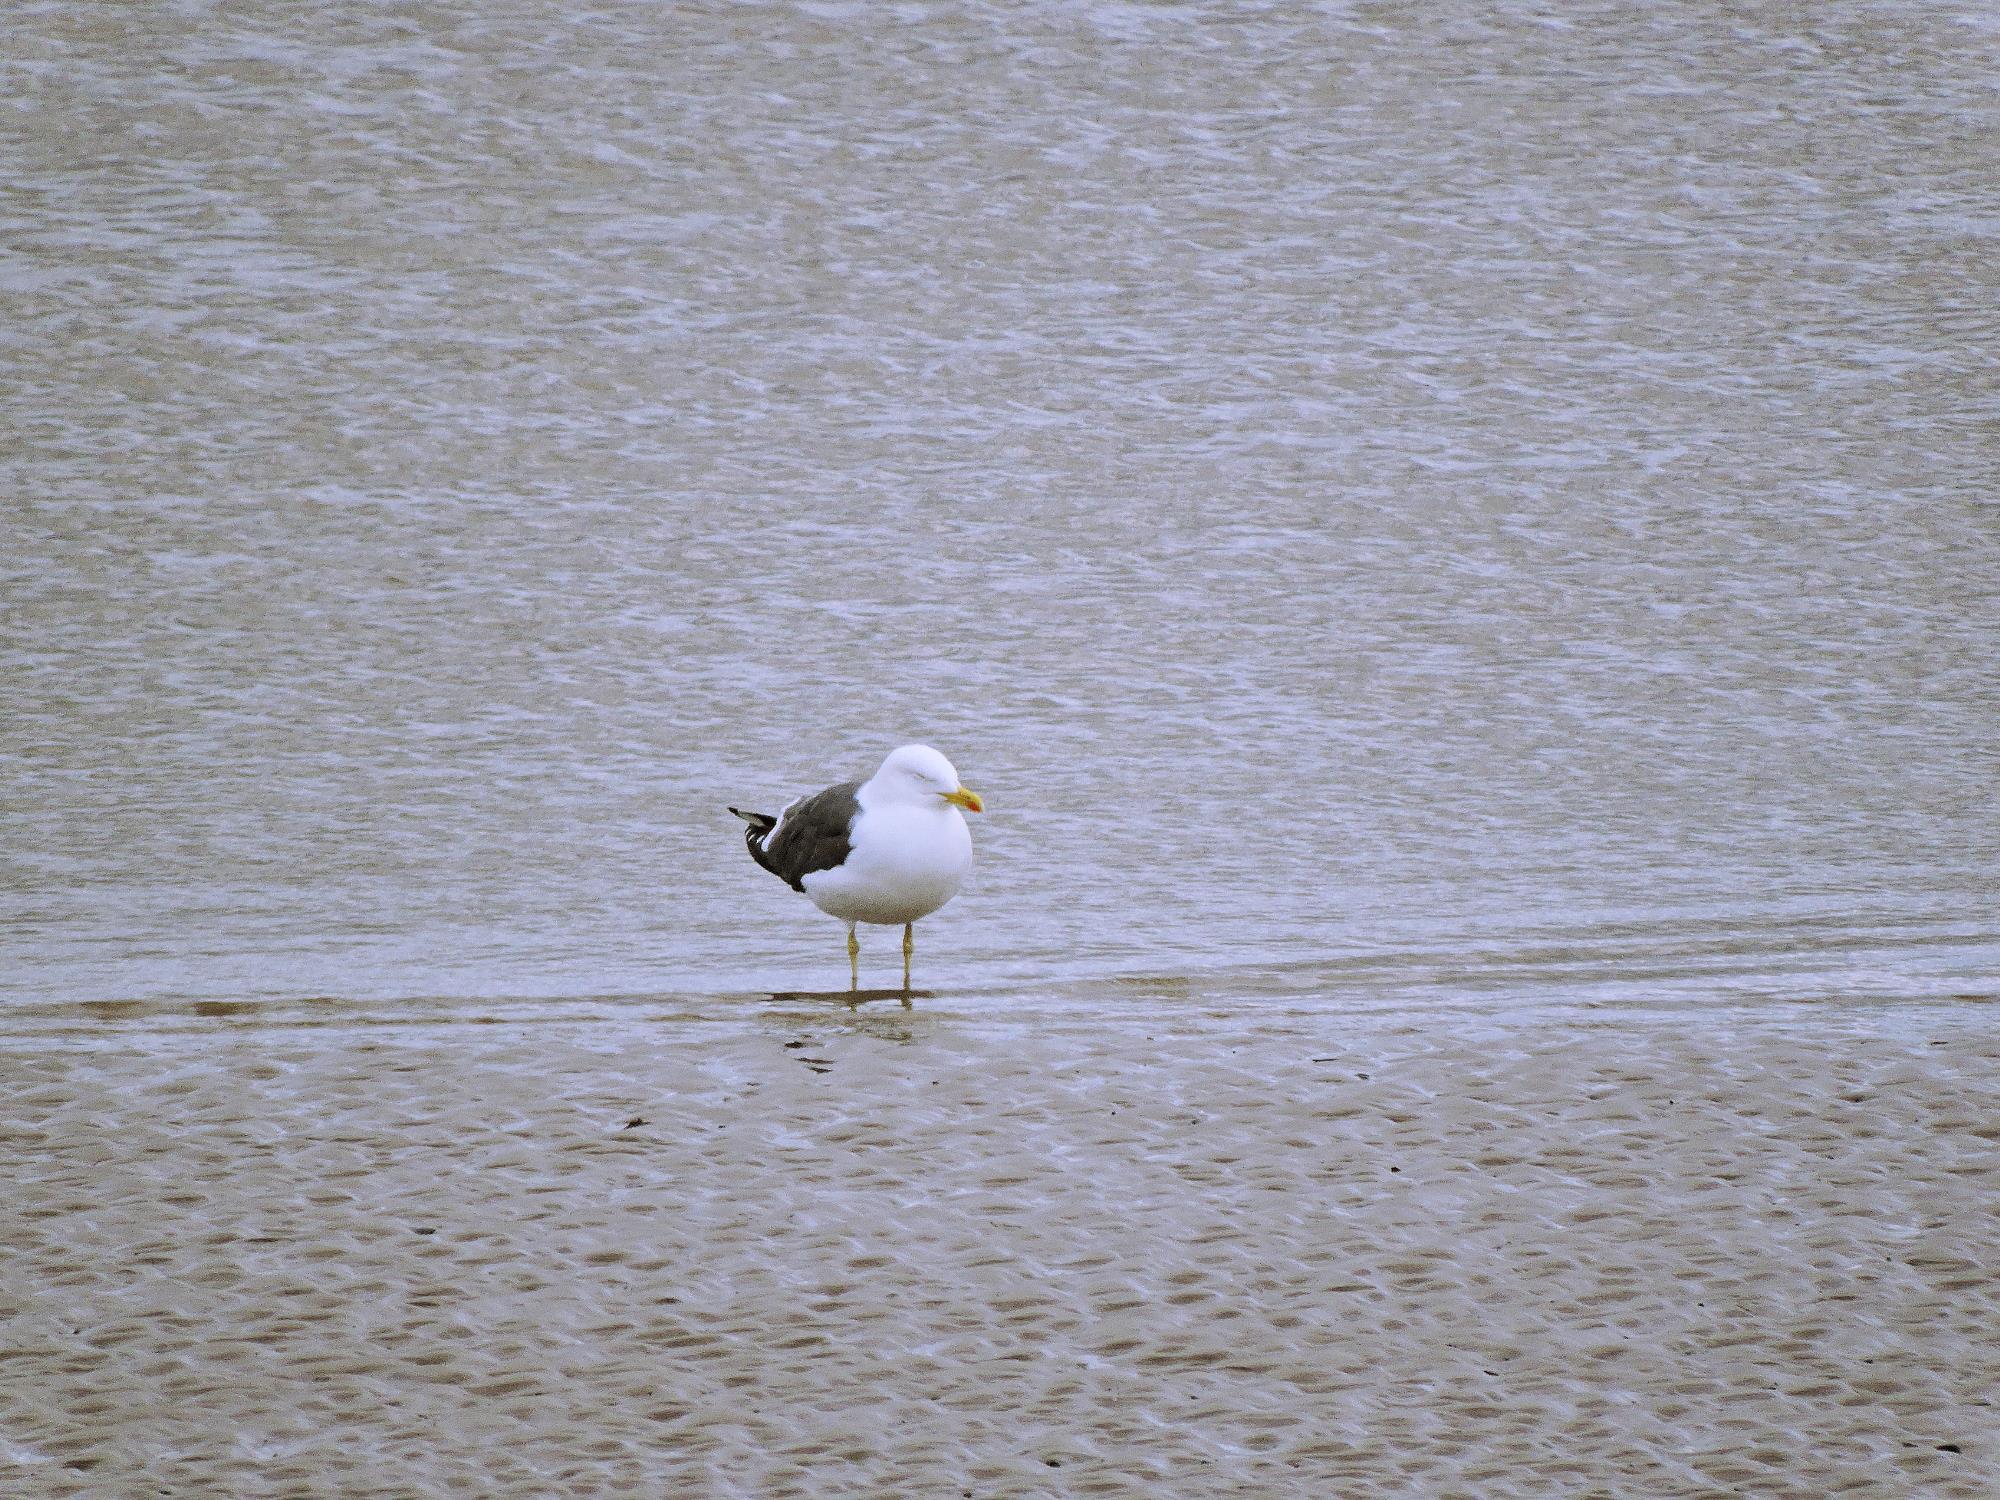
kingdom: Animalia
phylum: Chordata
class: Aves
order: Charadriiformes
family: Laridae
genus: Larus
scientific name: Larus fuscus
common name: Lesser black-backed gull
